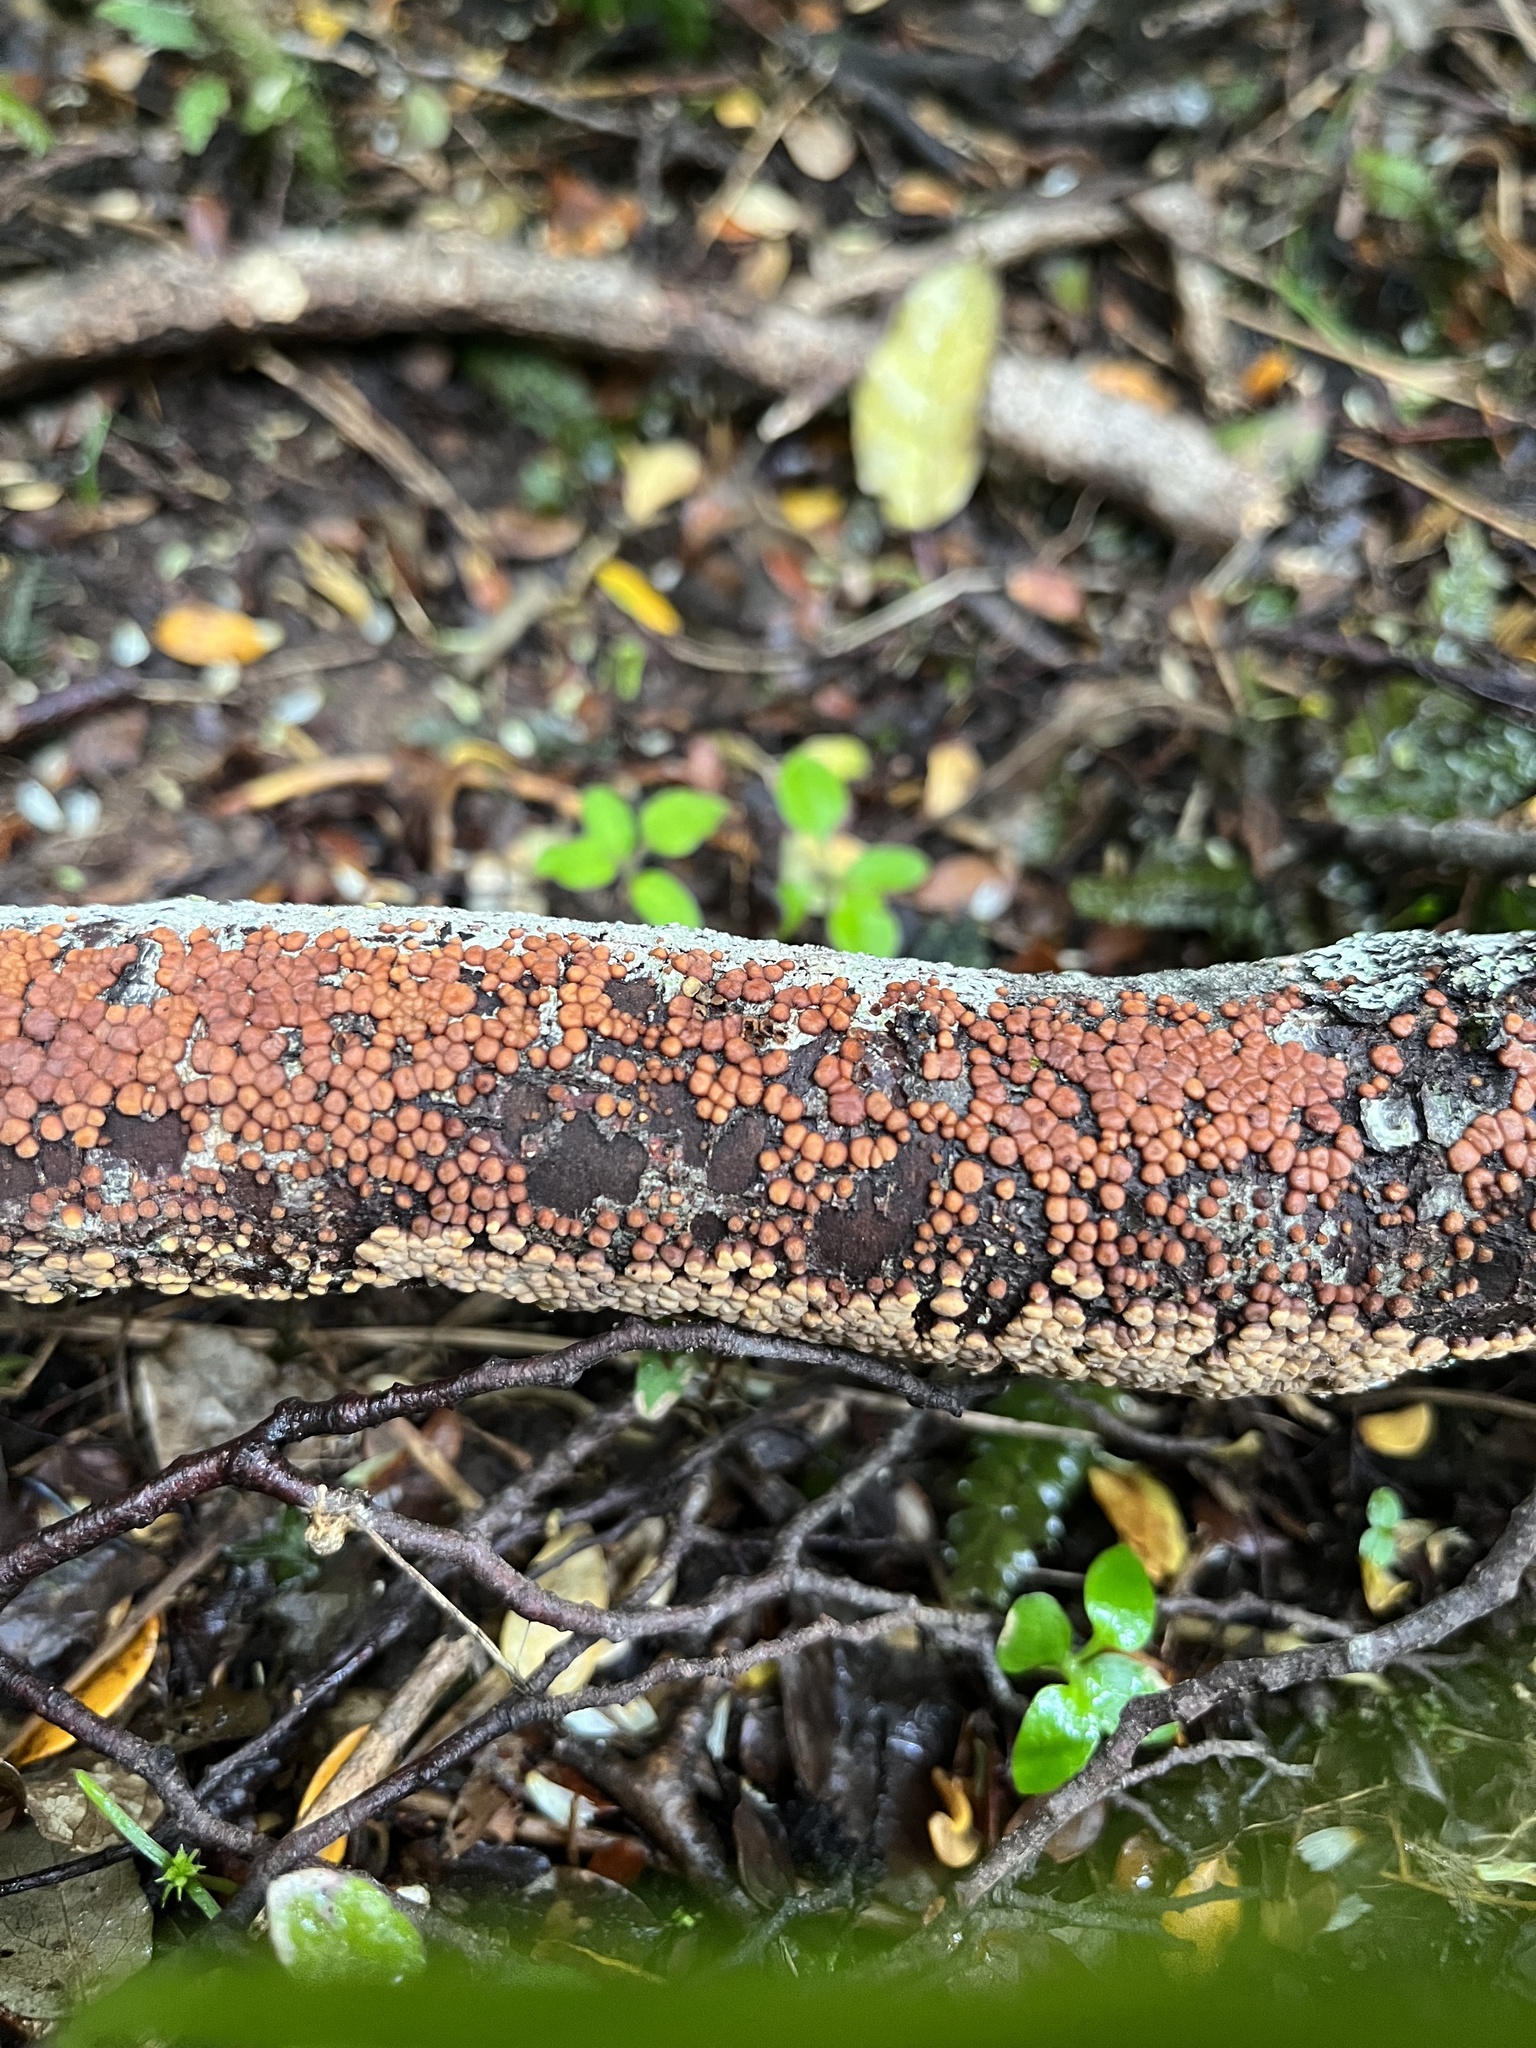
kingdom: Fungi
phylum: Basidiomycota
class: Agaricomycetes
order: Russulales
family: Stereaceae
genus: Aleurodiscus
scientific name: Aleurodiscus berggrenii
